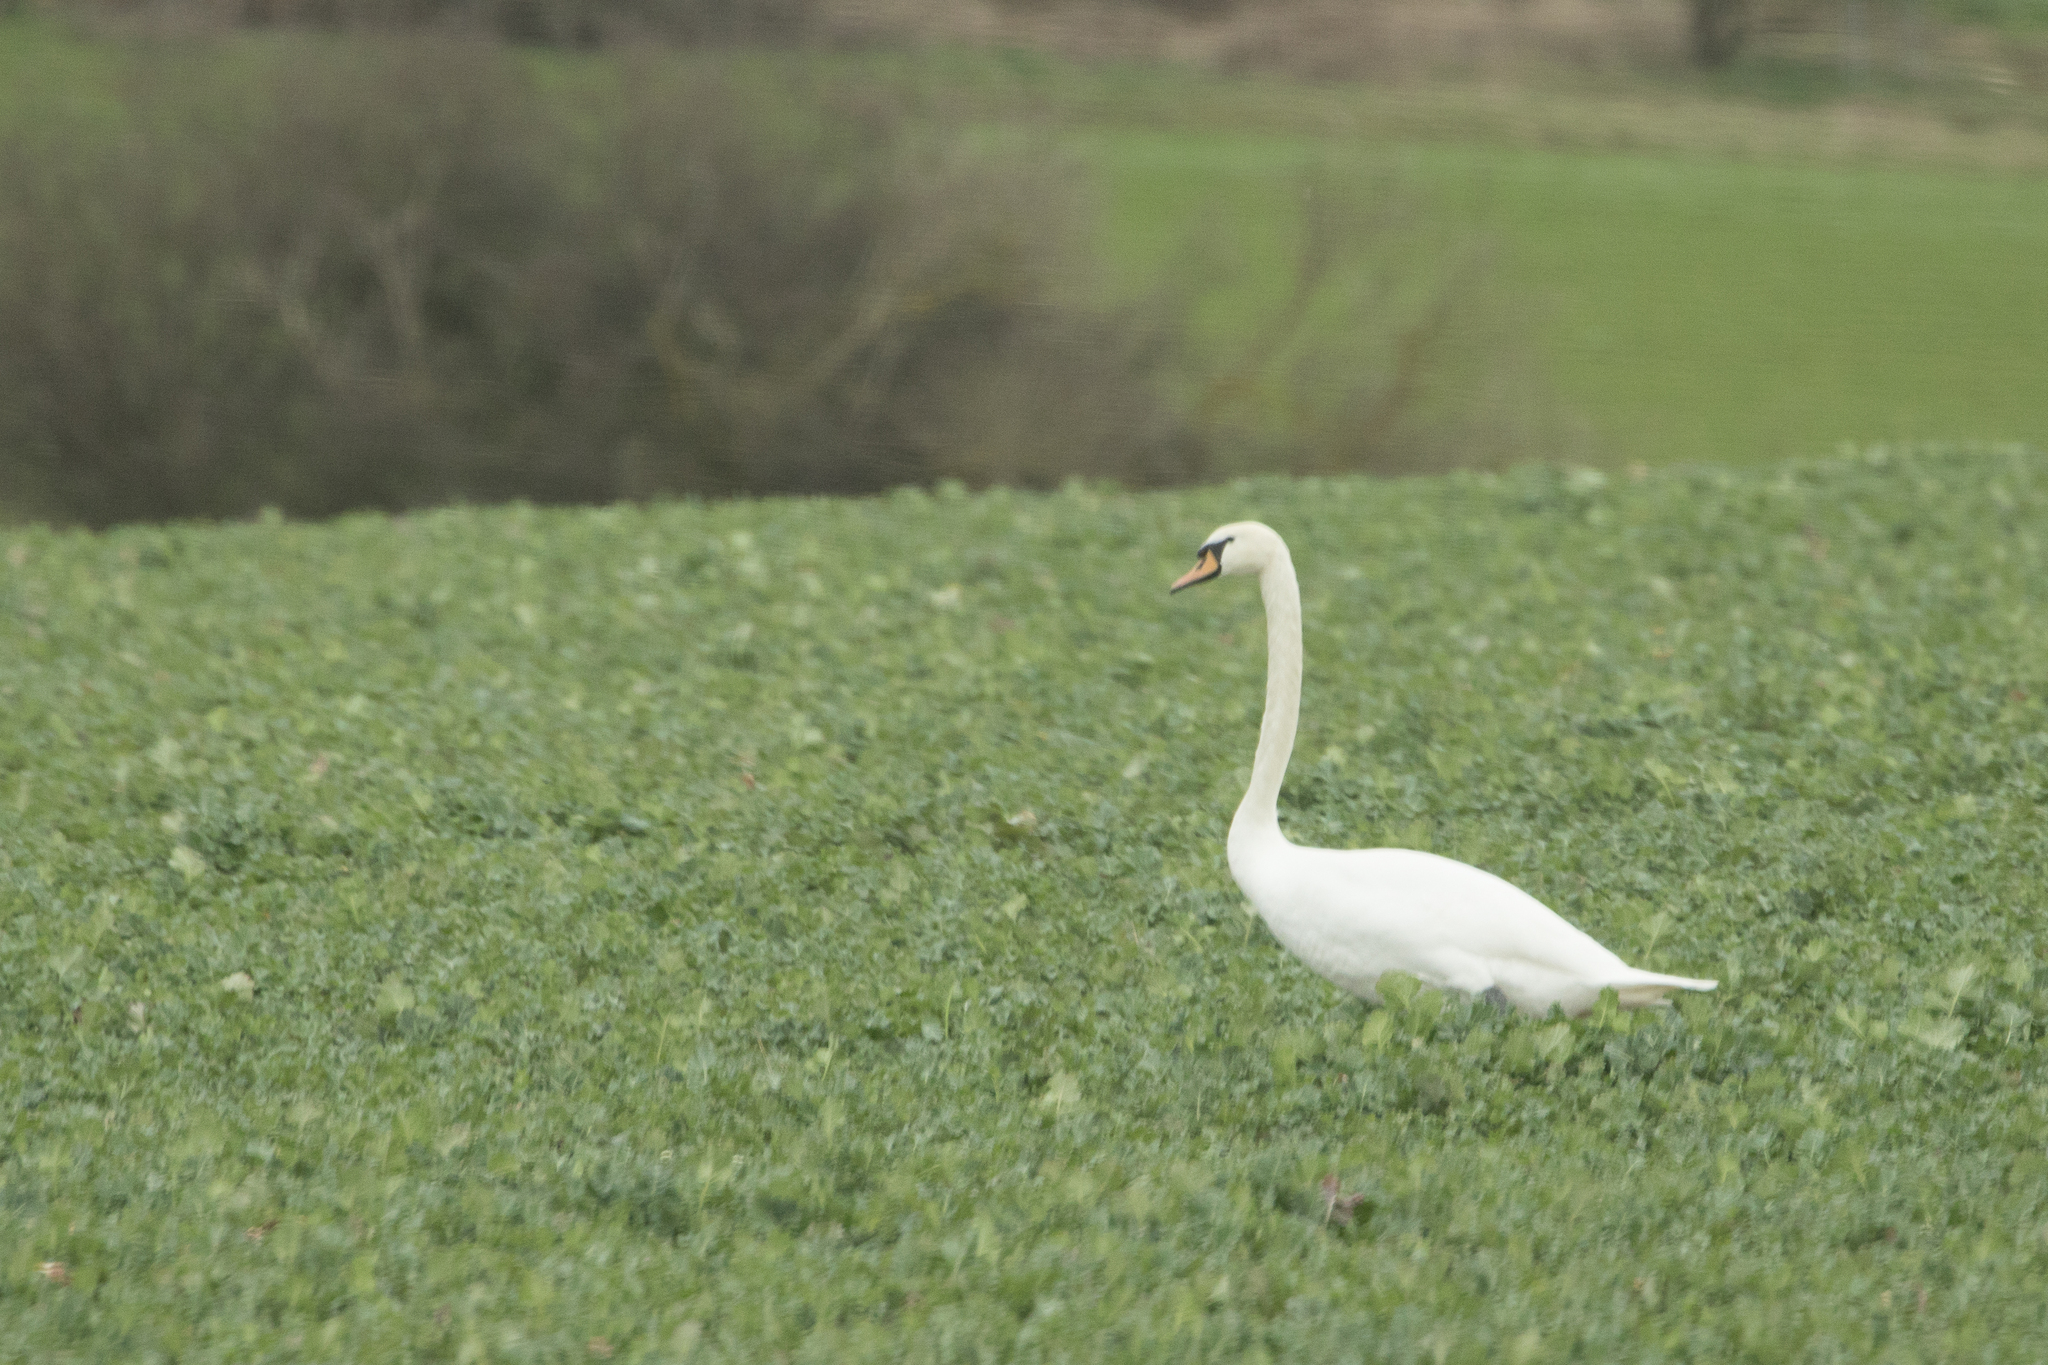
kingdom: Animalia
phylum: Chordata
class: Aves
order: Anseriformes
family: Anatidae
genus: Cygnus
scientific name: Cygnus olor
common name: Mute swan
